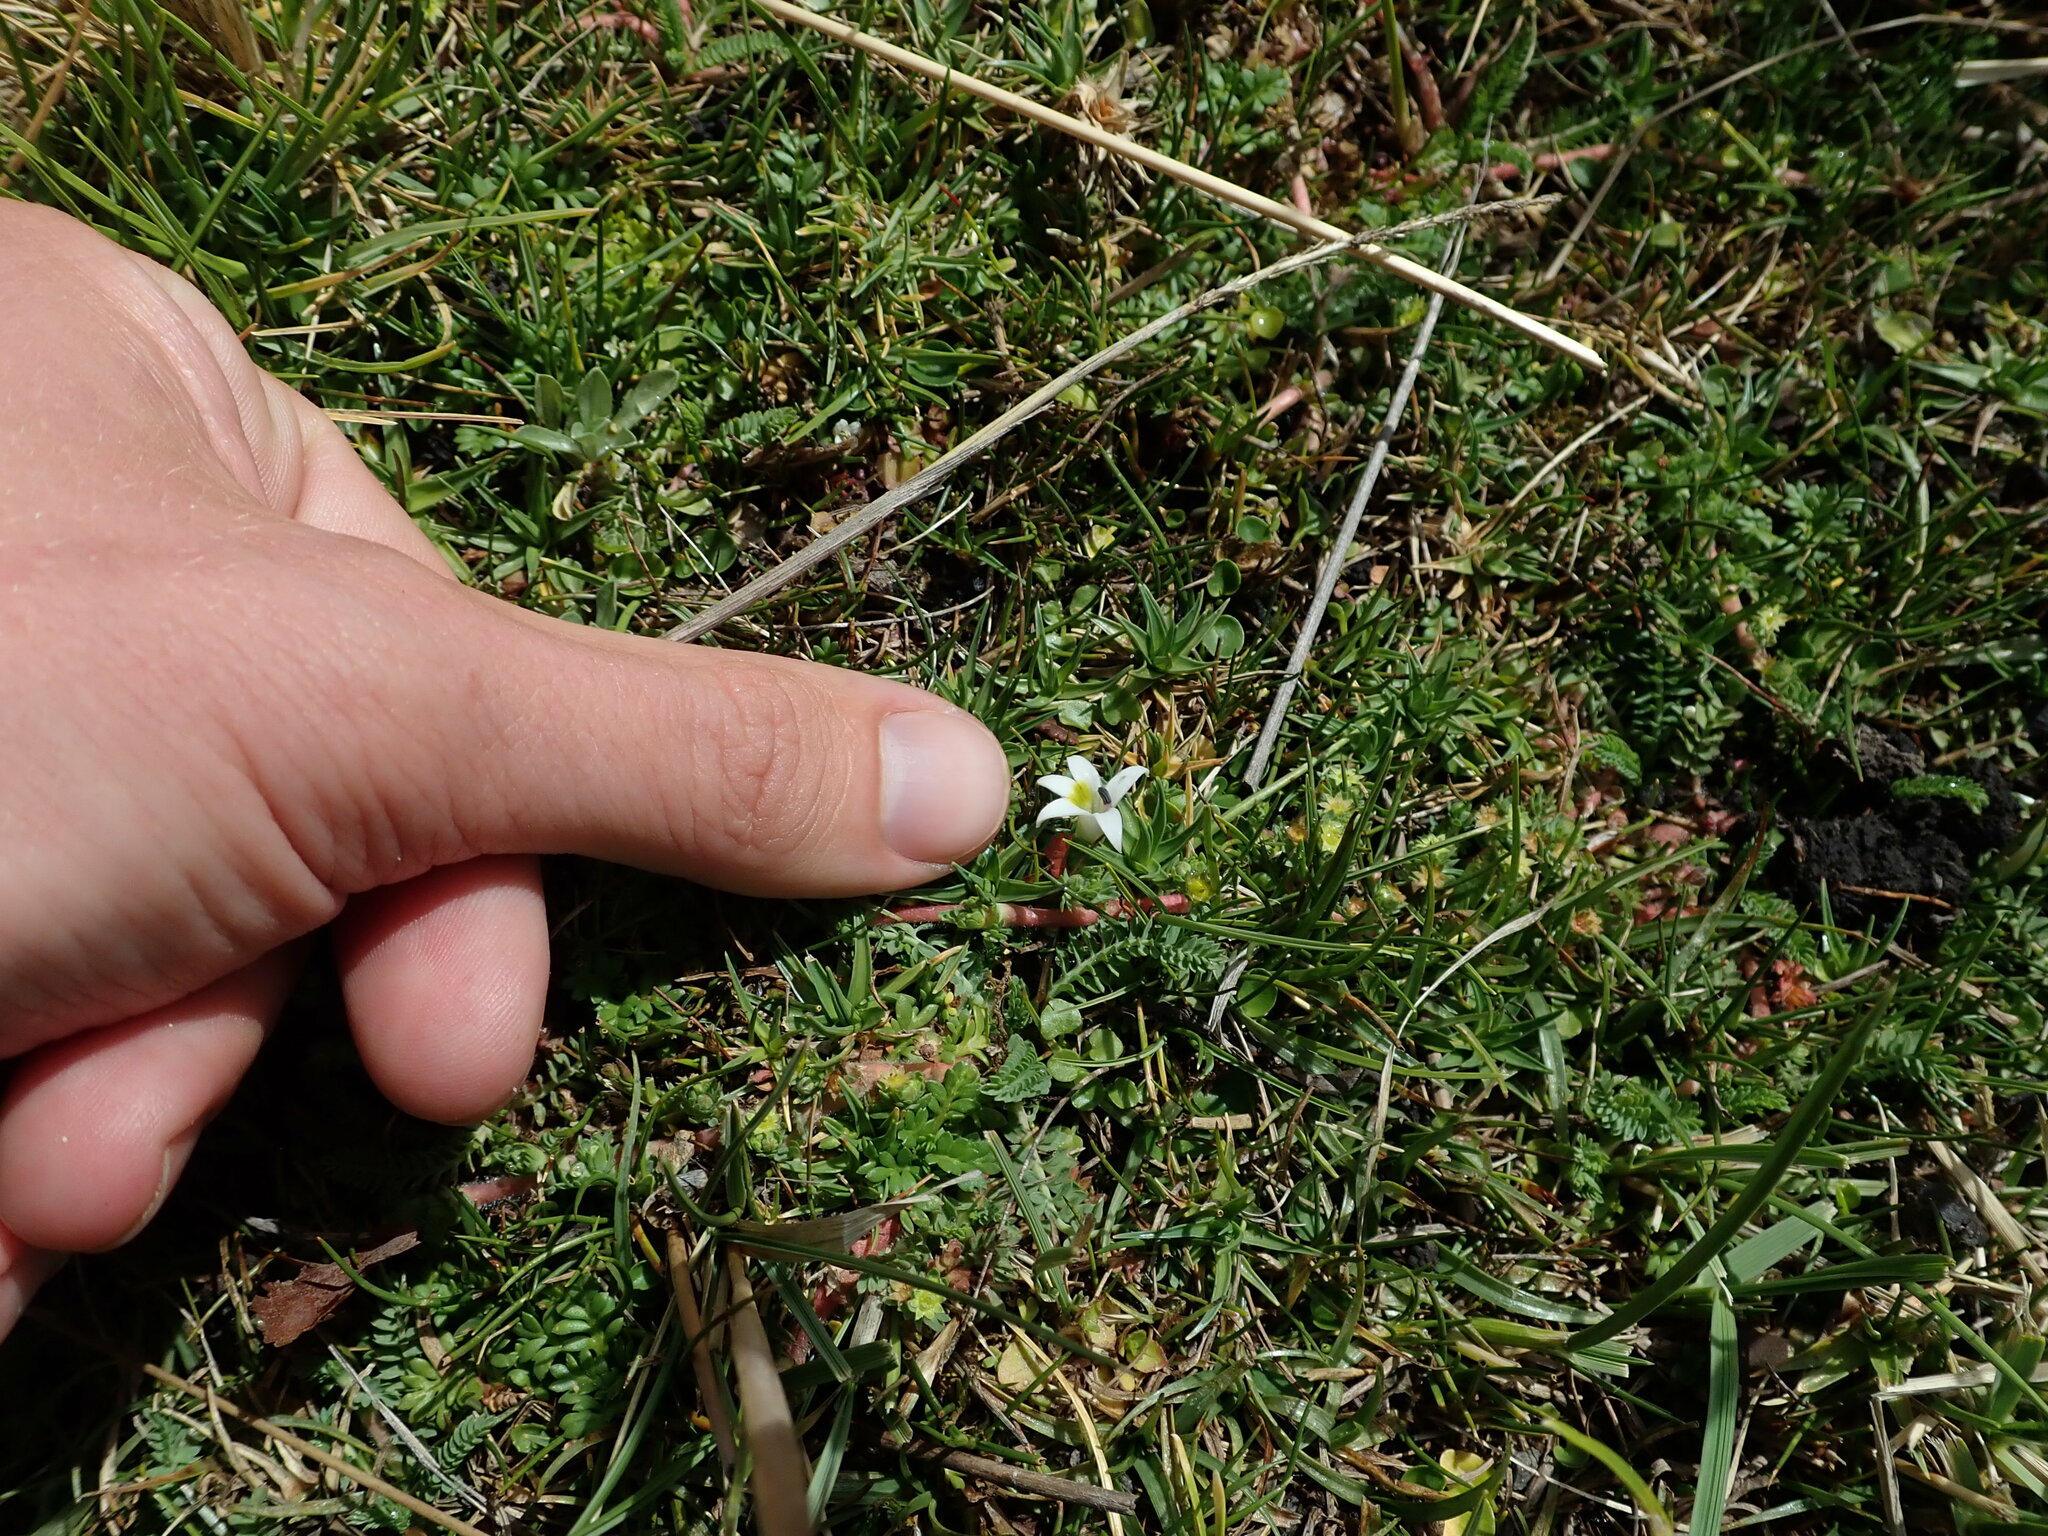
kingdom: Plantae
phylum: Tracheophyta
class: Magnoliopsida
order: Asterales
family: Campanulaceae
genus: Lobelia
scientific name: Lobelia oligophylla
